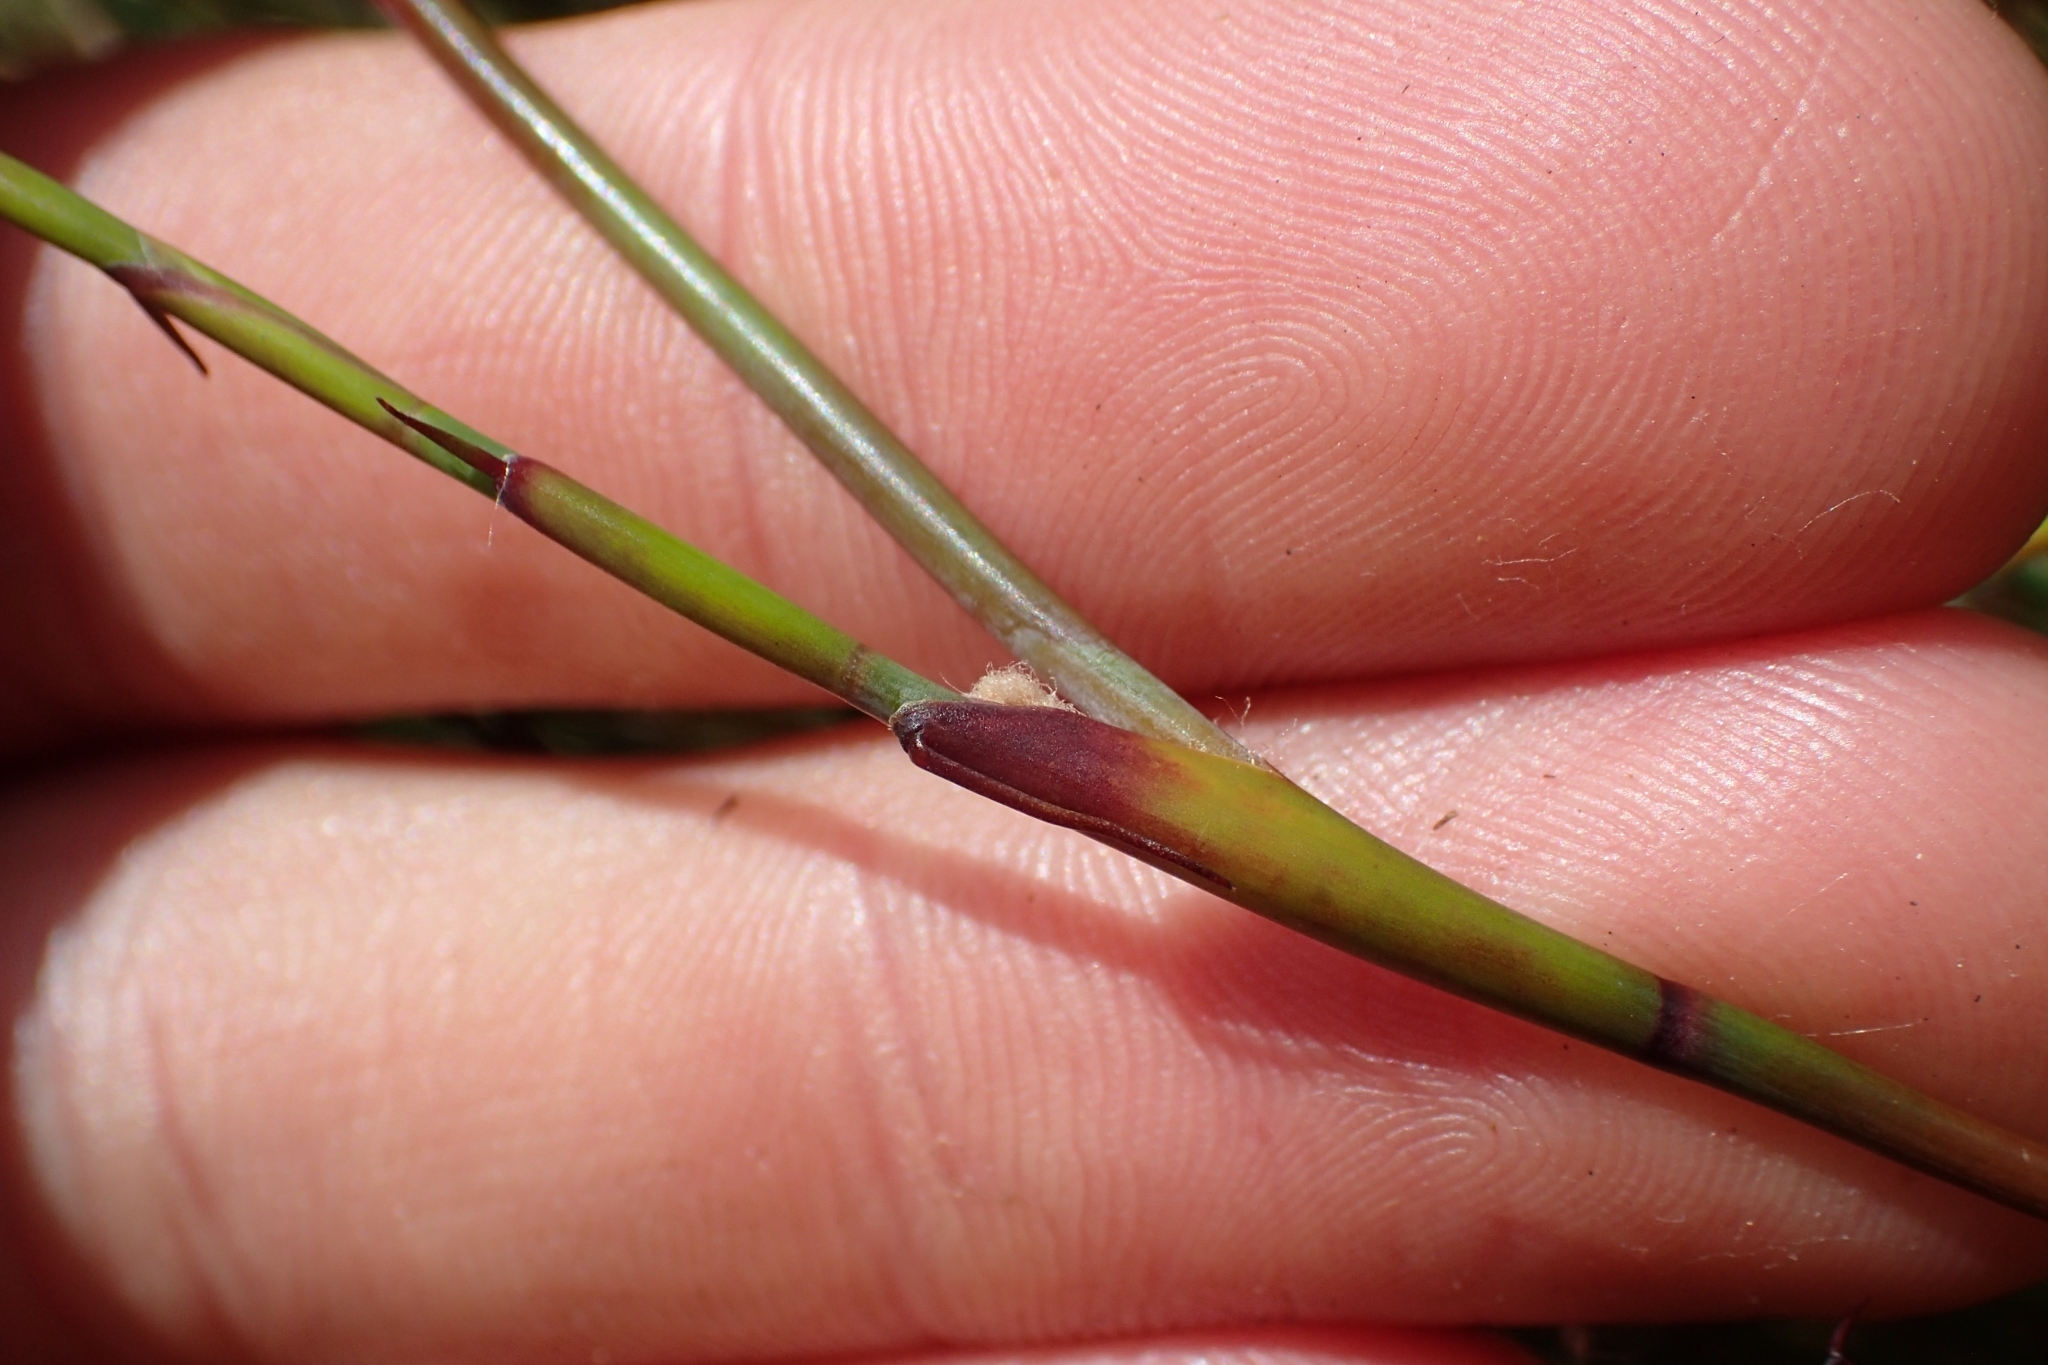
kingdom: Plantae
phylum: Tracheophyta
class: Liliopsida
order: Poales
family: Restionaceae
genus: Empodisma
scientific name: Empodisma robustum
